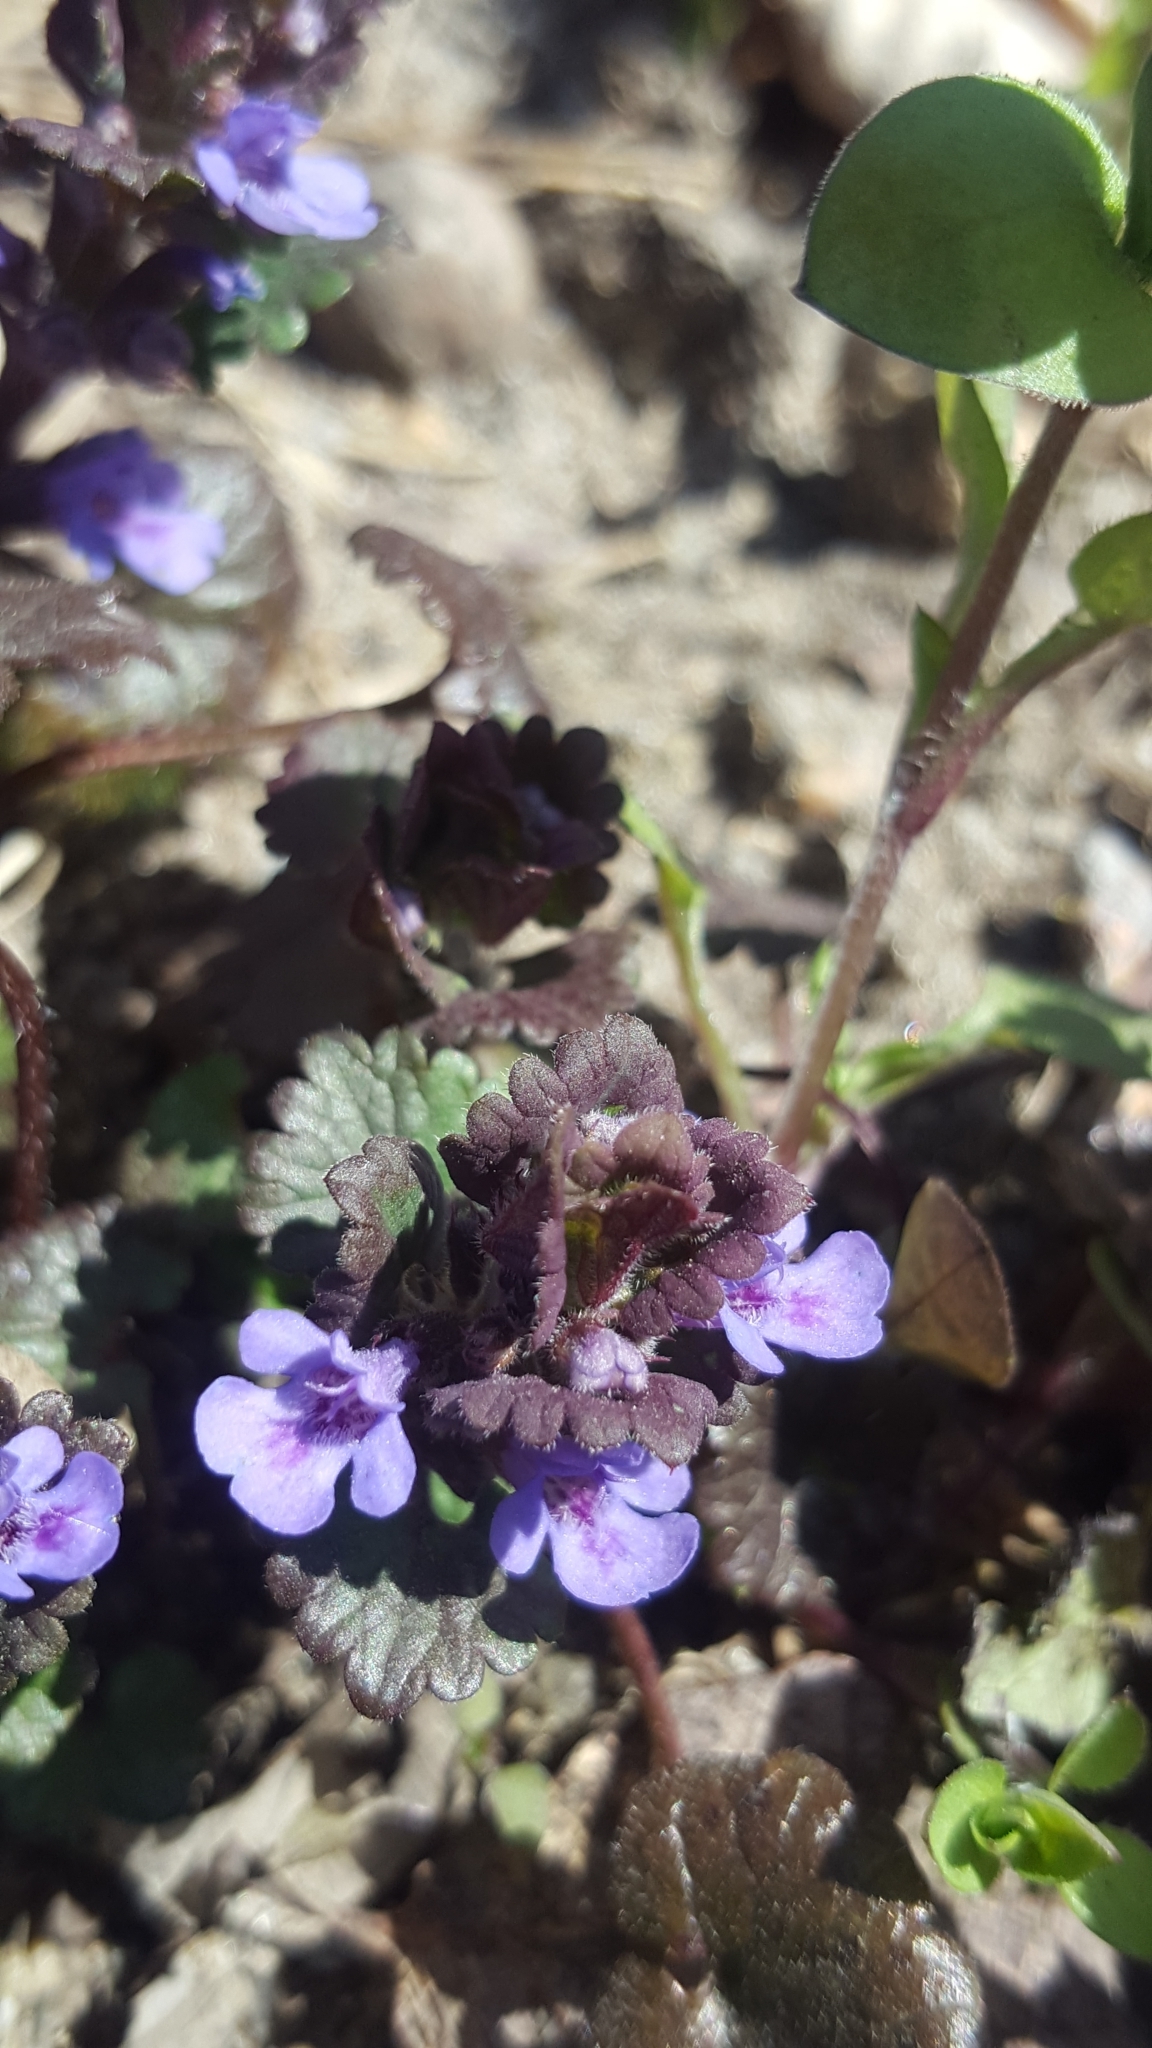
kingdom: Plantae
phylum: Tracheophyta
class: Magnoliopsida
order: Lamiales
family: Lamiaceae
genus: Glechoma
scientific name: Glechoma hederacea
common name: Ground ivy
